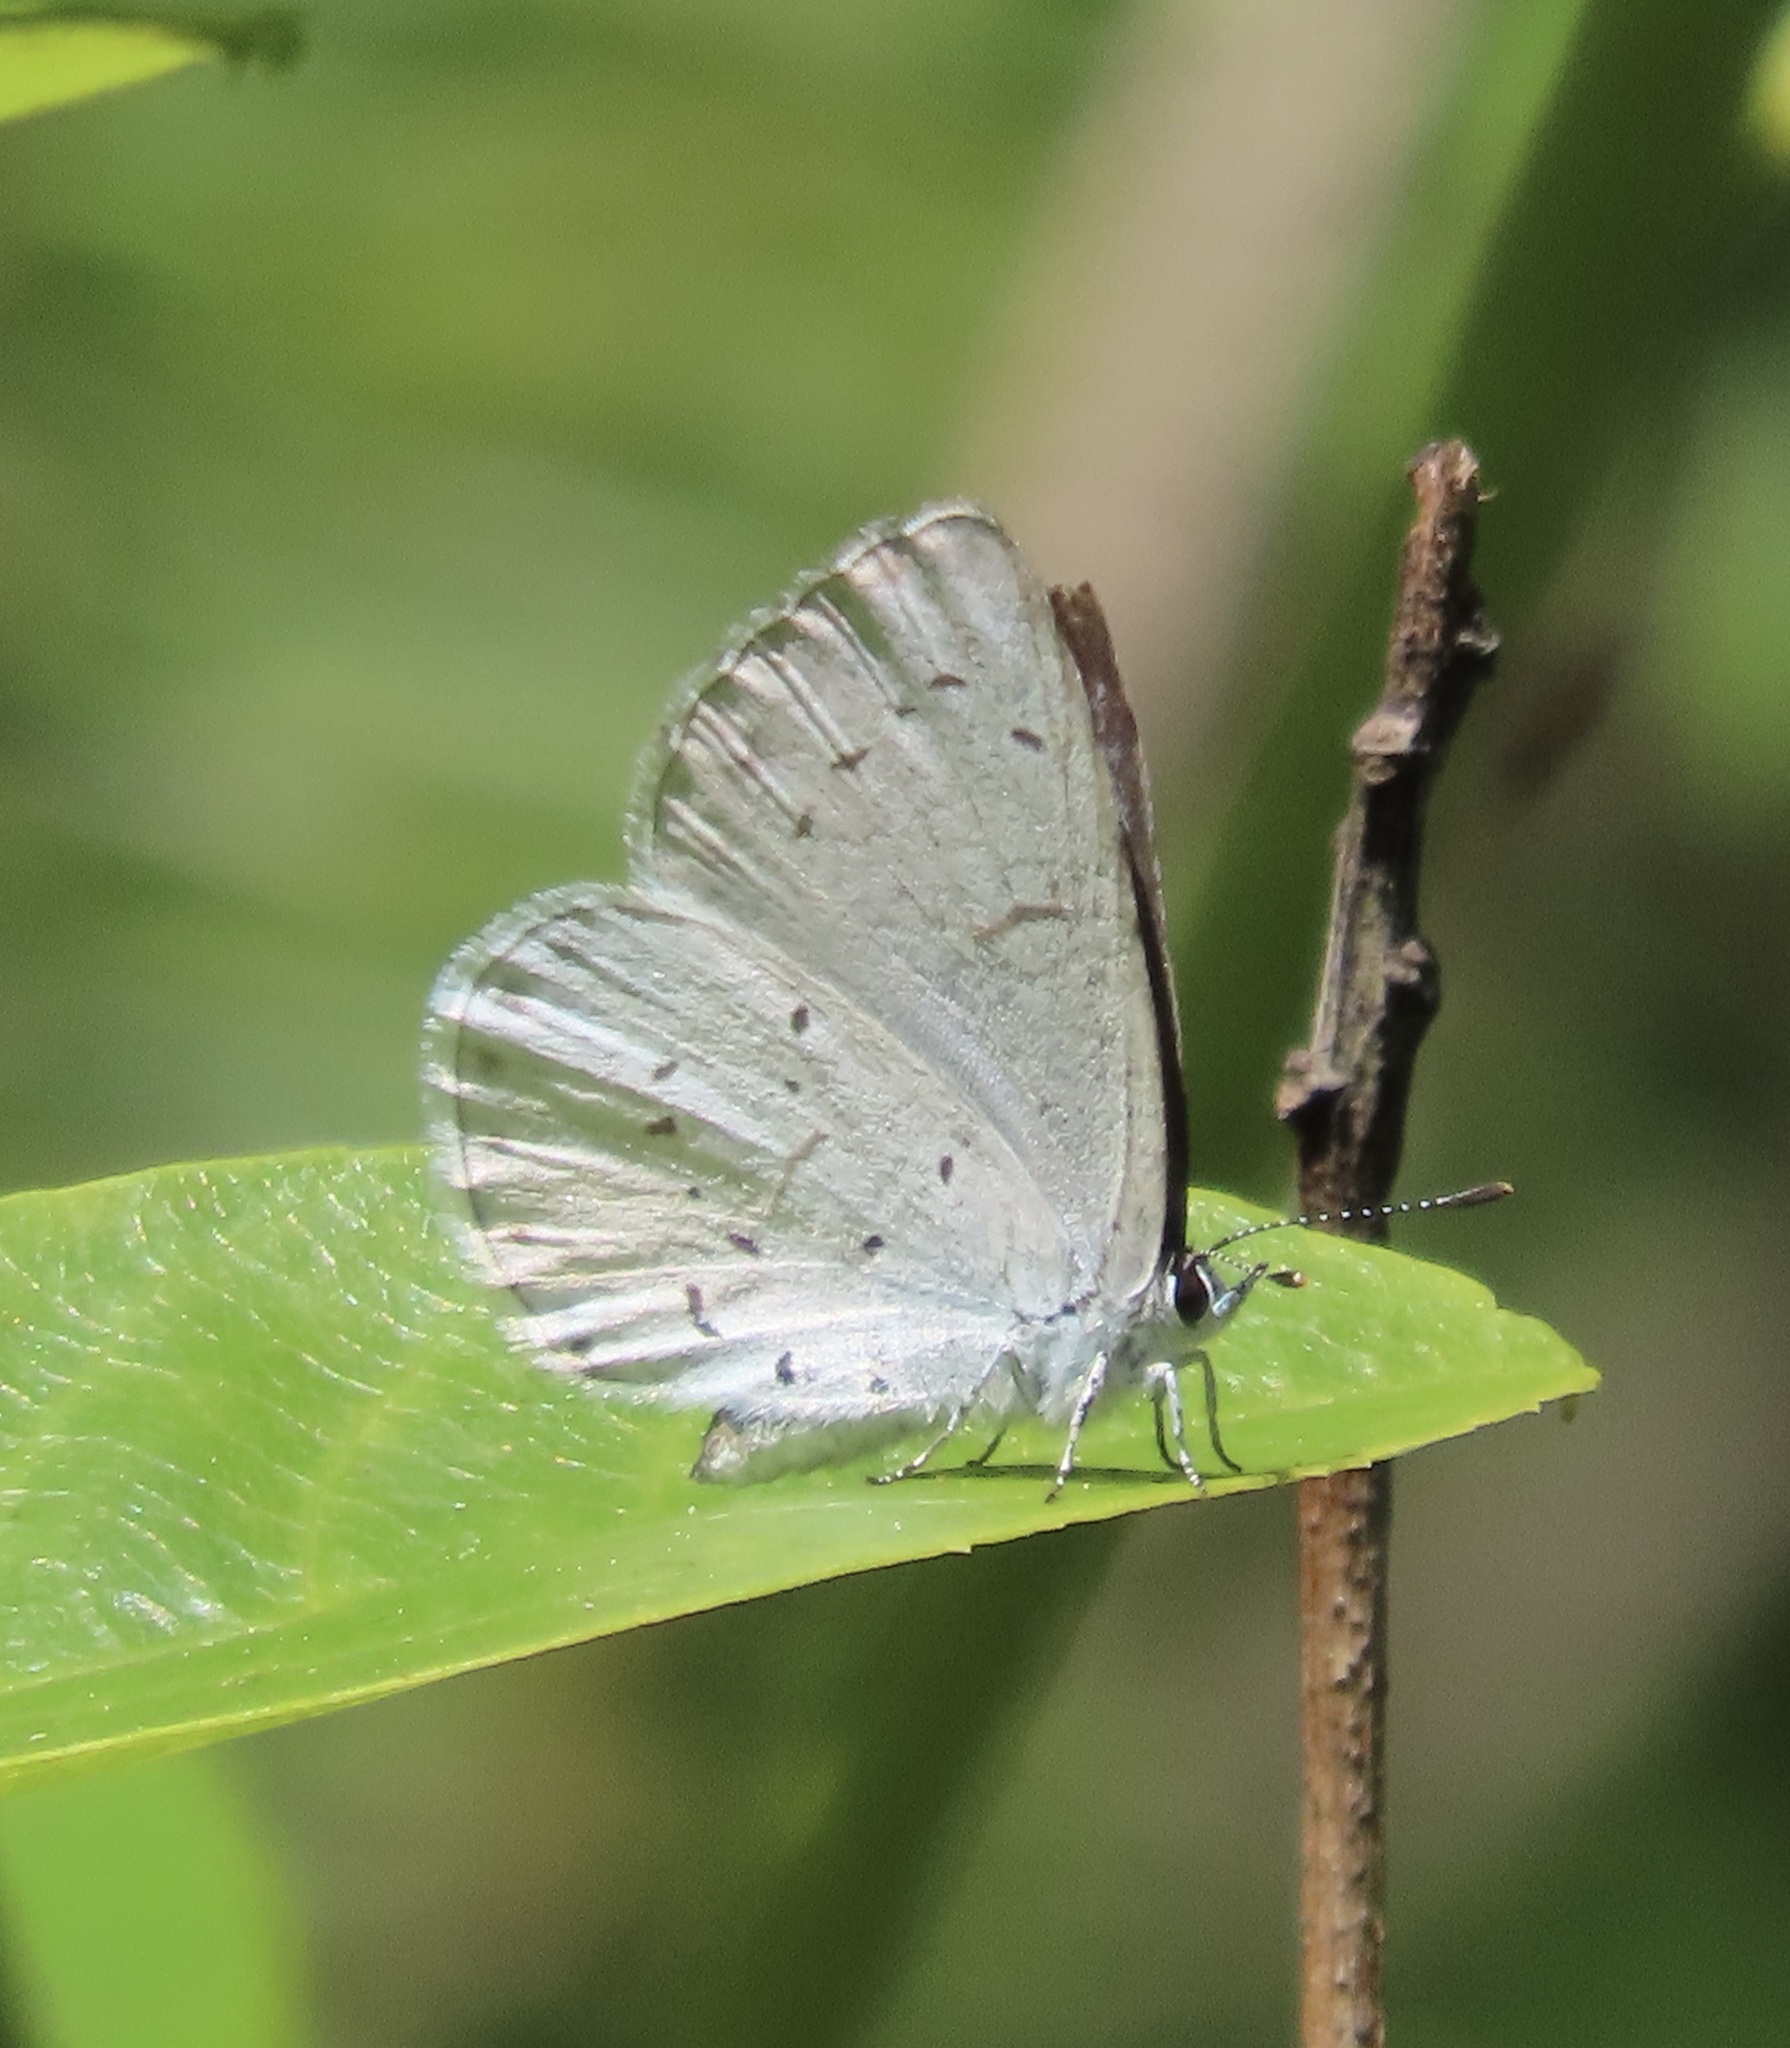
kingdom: Animalia
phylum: Arthropoda
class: Insecta
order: Lepidoptera
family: Lycaenidae
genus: Celastrina
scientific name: Celastrina ladon
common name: Spring azure
